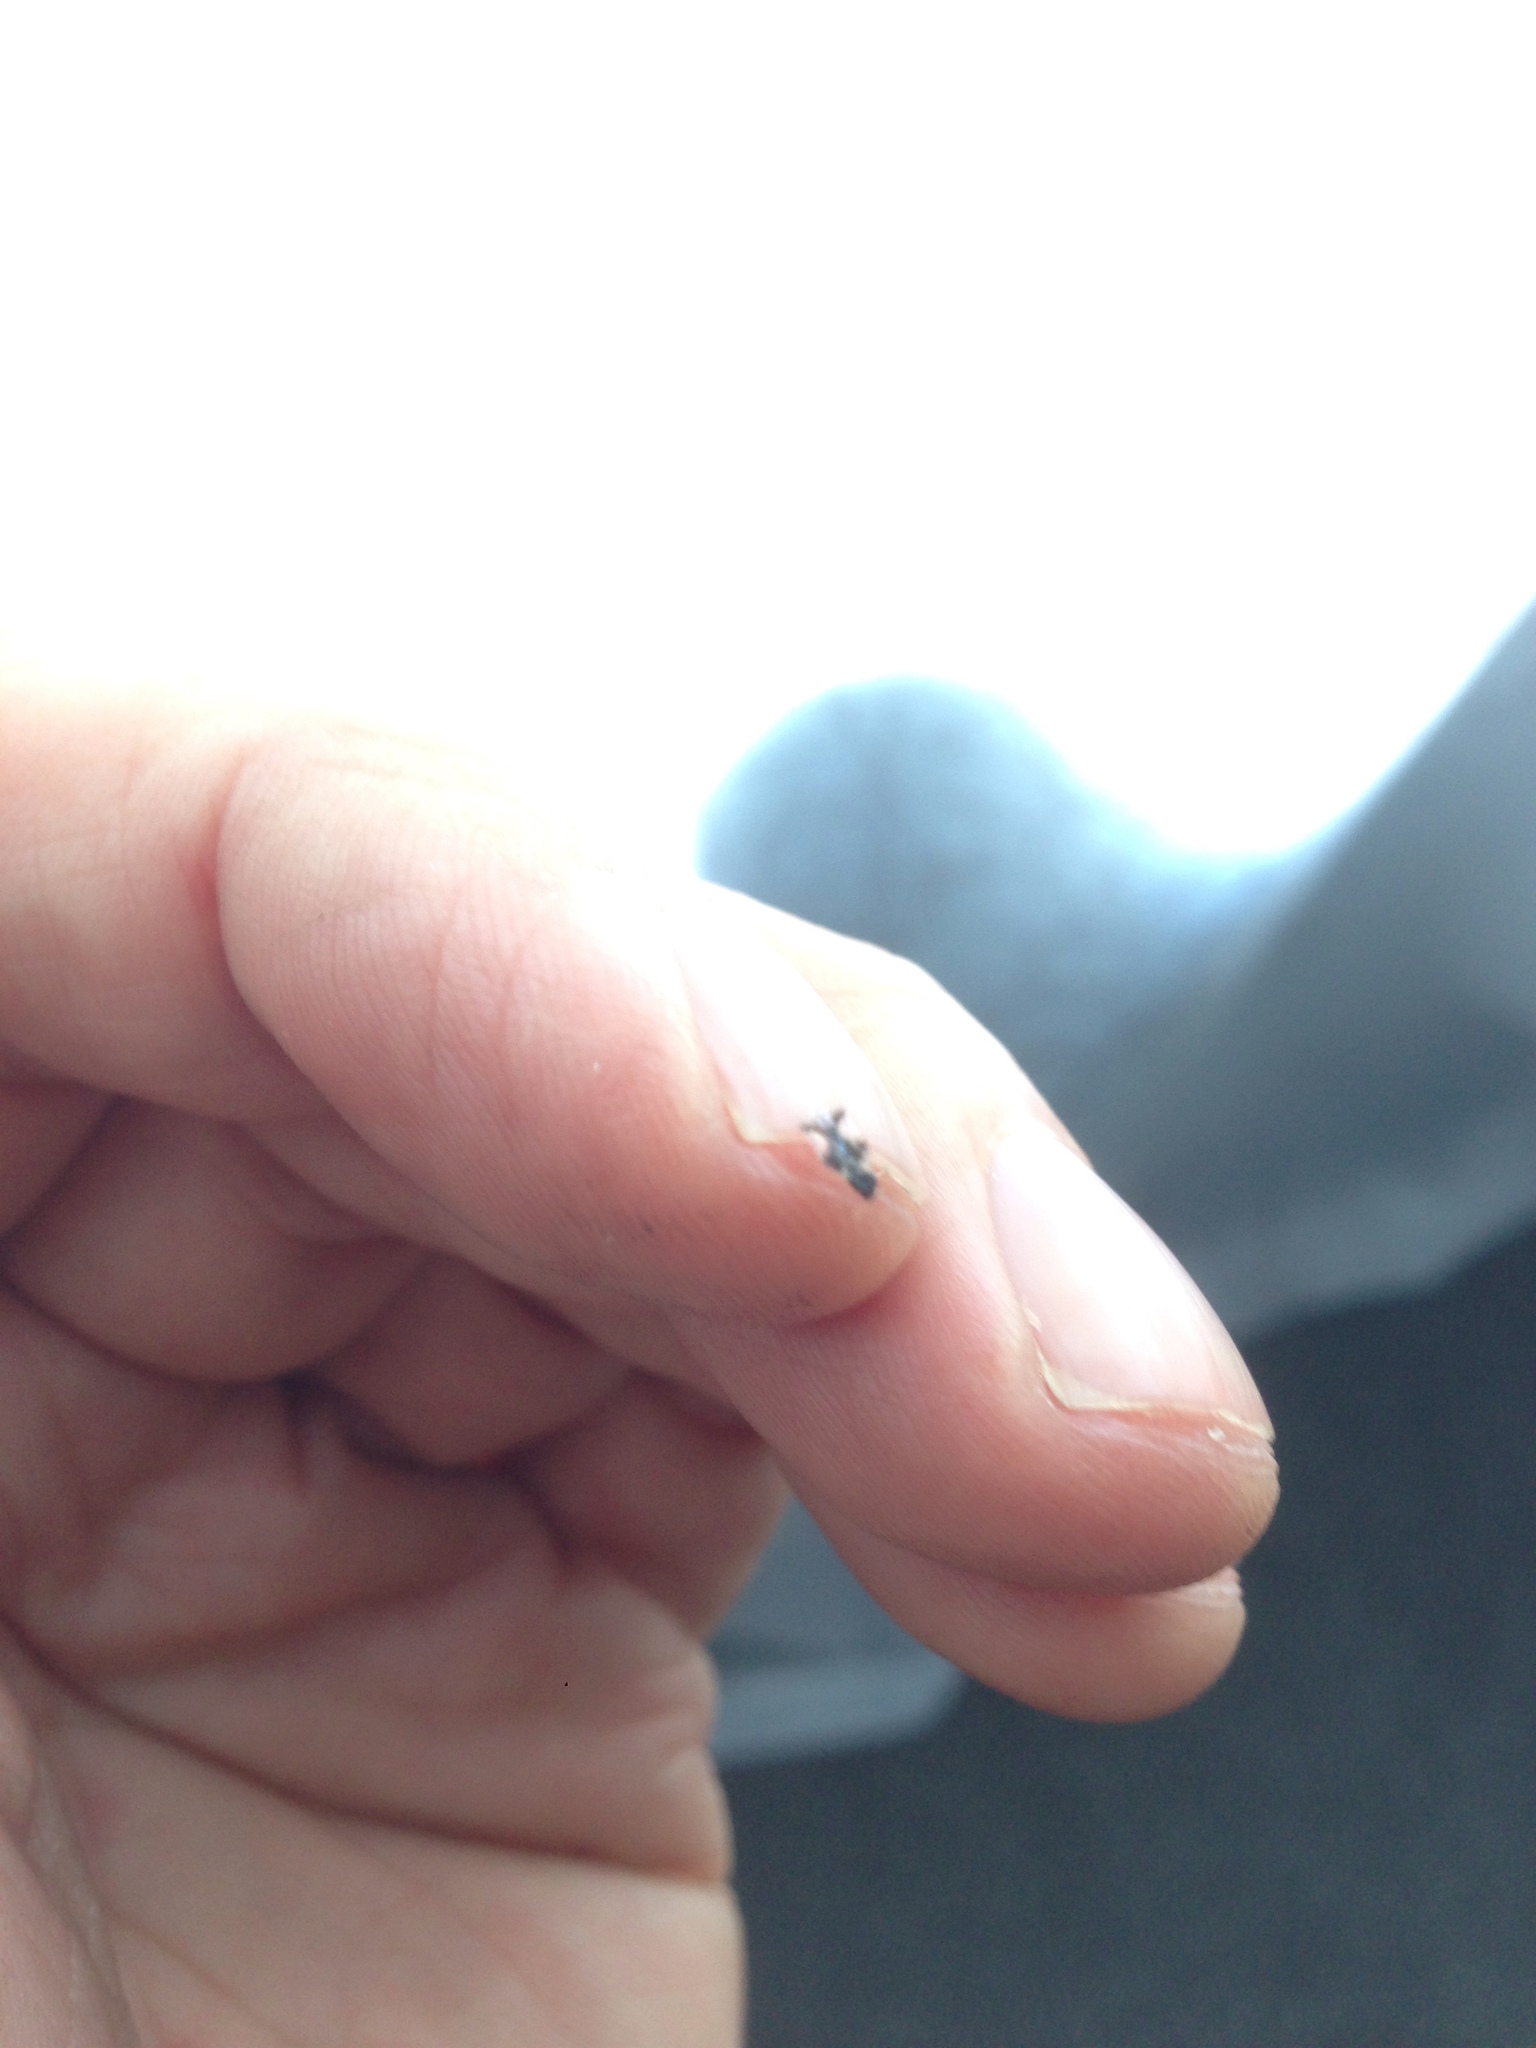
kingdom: Animalia
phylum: Arthropoda
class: Insecta
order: Hemiptera
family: Tingidae
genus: Stephanitis
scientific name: Stephanitis takeyai
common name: Andromeda lacebug
